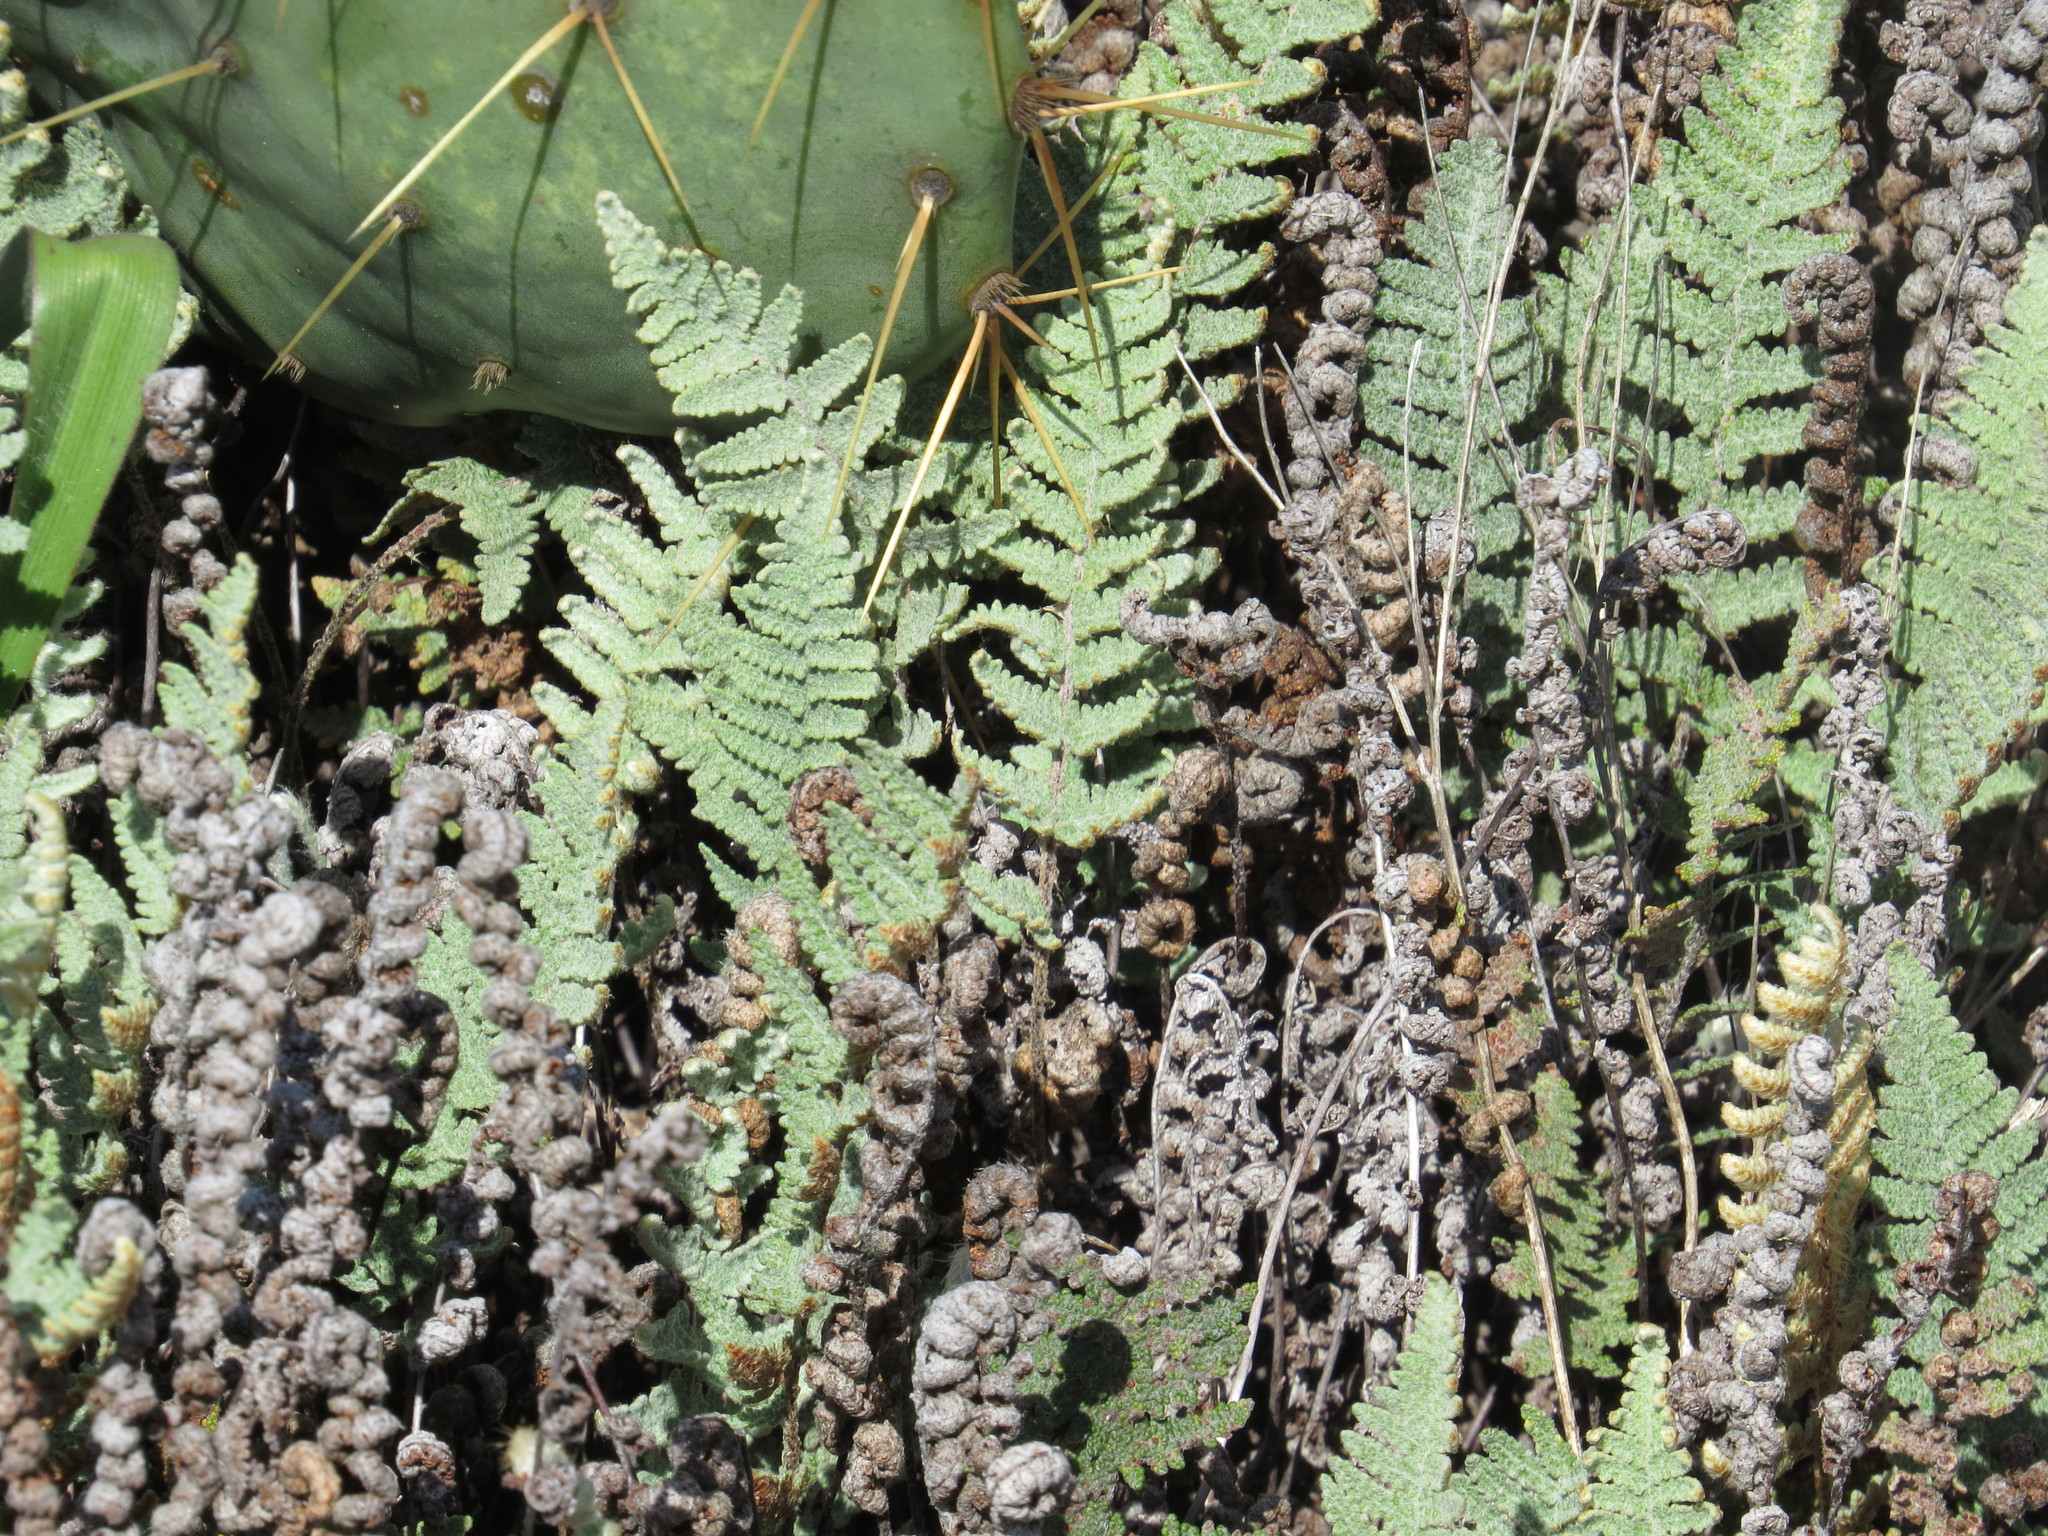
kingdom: Plantae
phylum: Tracheophyta
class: Polypodiopsida
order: Polypodiales
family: Pteridaceae
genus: Myriopteris
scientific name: Myriopteris lindheimeri
